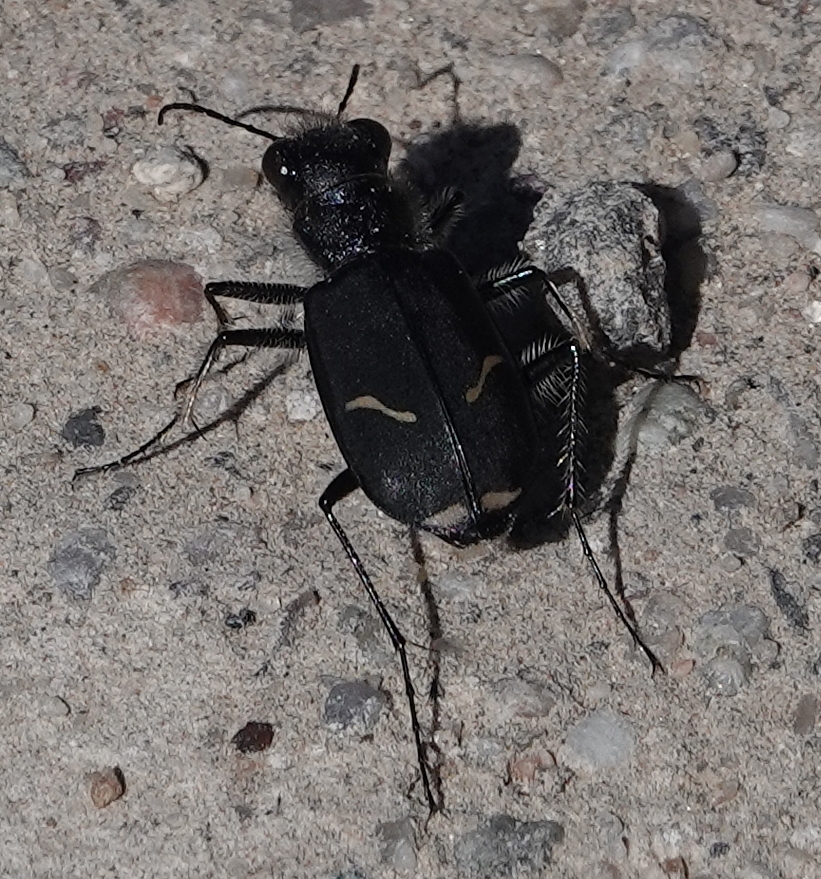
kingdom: Animalia
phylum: Arthropoda
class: Insecta
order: Coleoptera
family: Carabidae
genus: Cicindela
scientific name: Cicindela purpurea
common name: Cow path tiger beetle
